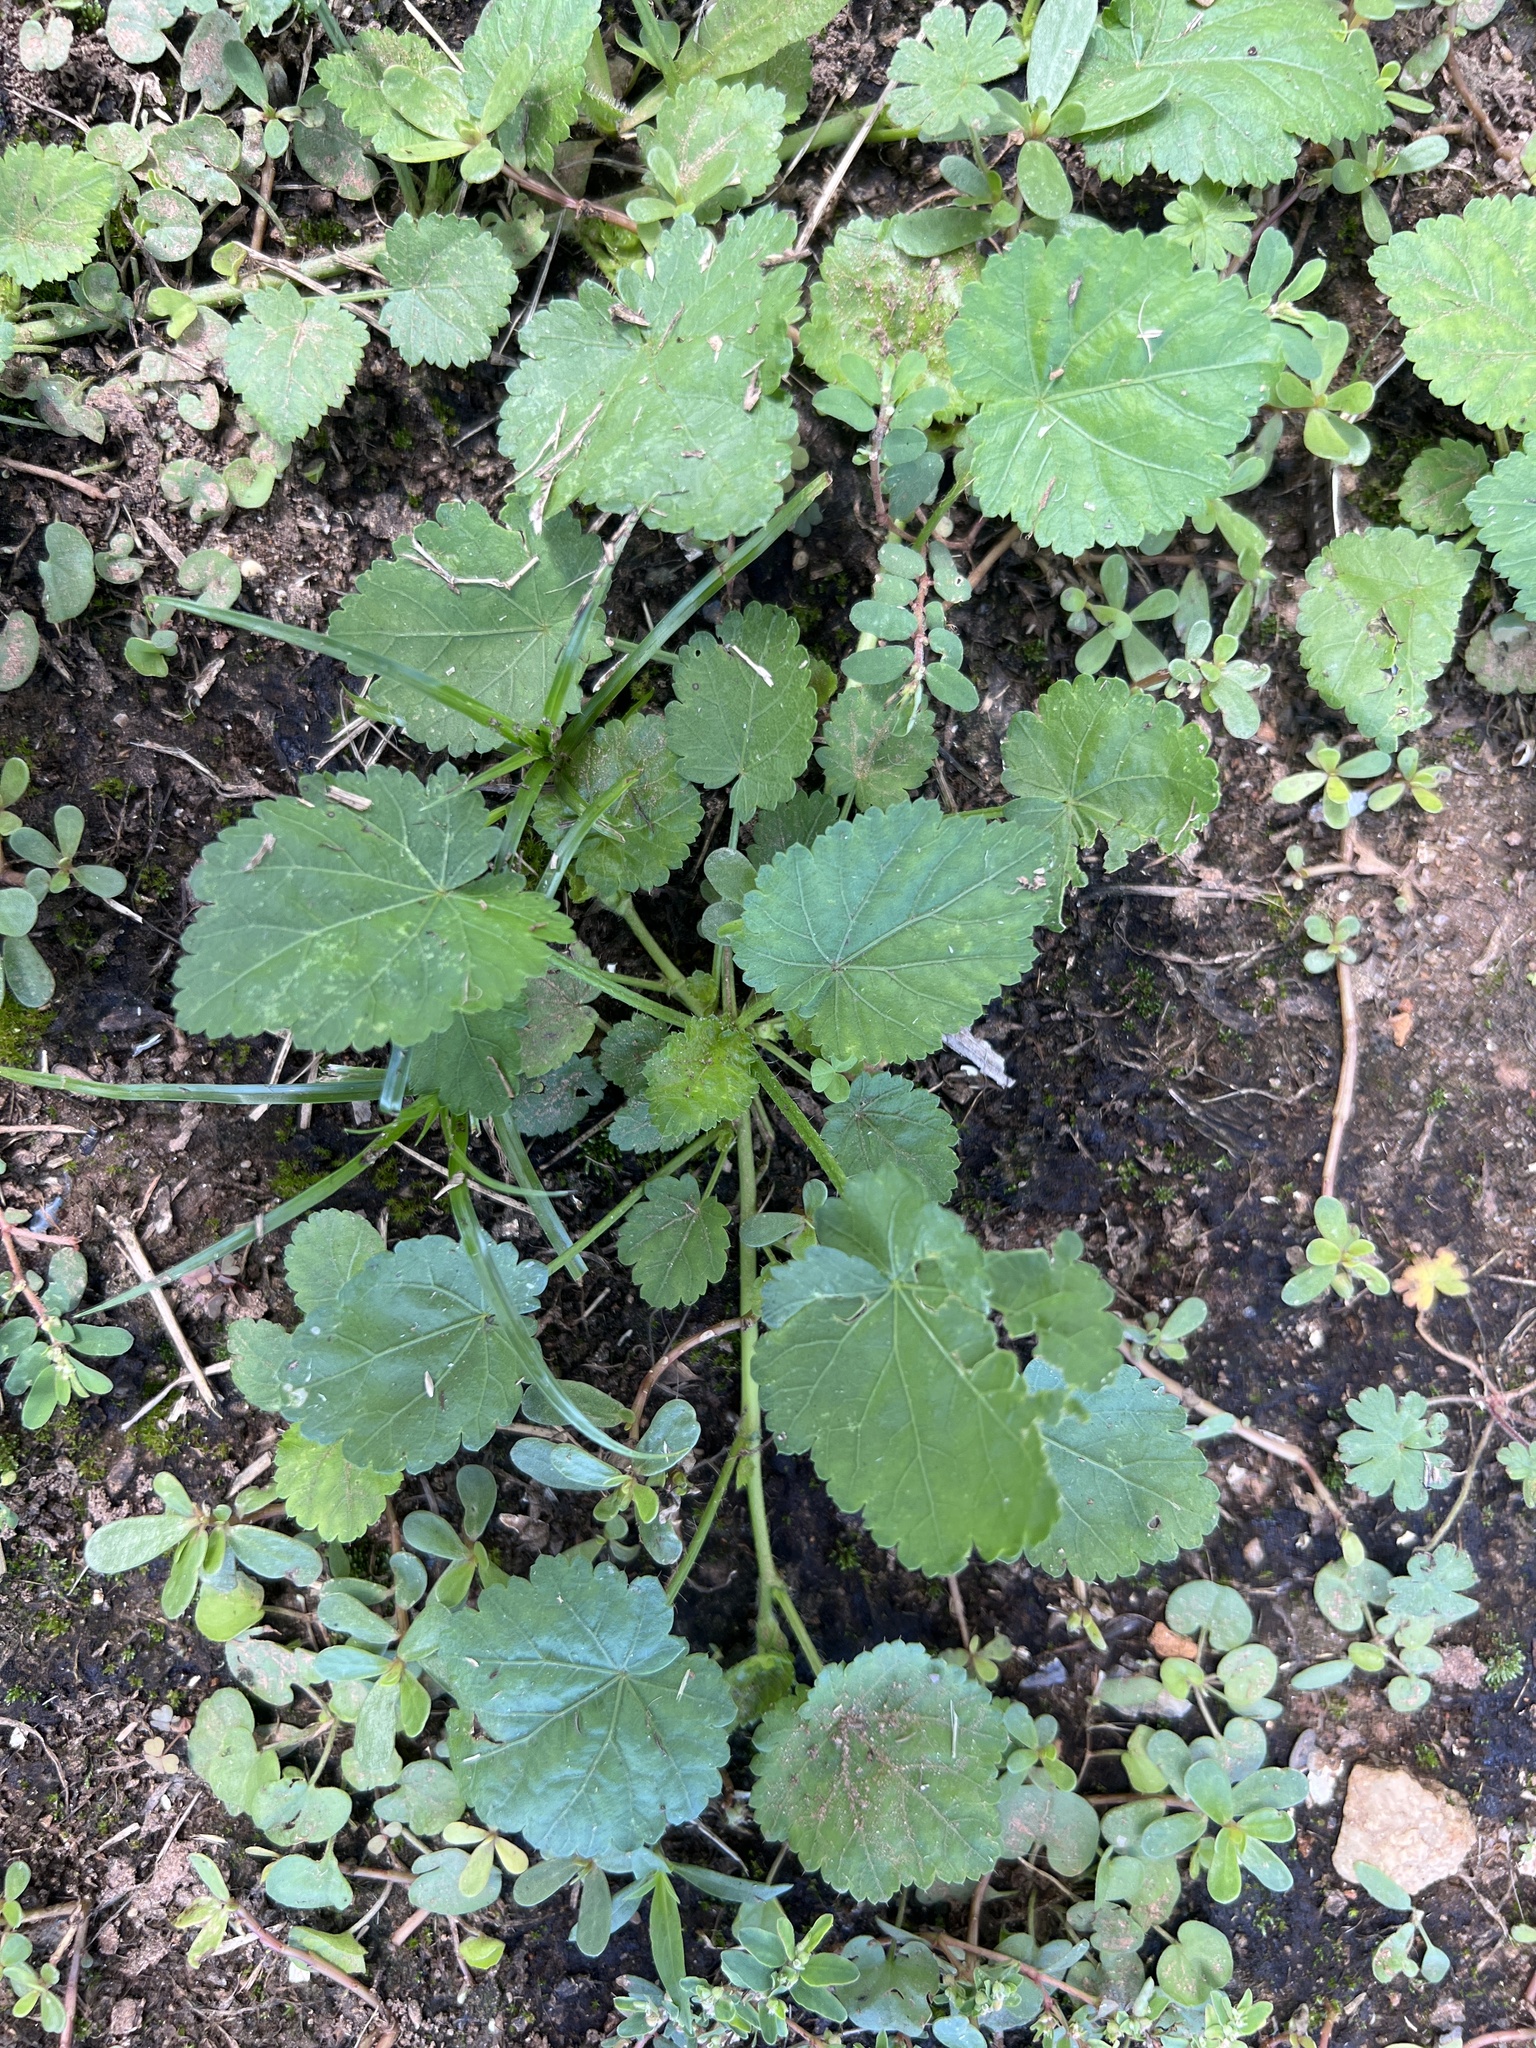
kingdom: Plantae
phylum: Tracheophyta
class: Magnoliopsida
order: Malvales
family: Malvaceae
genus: Modiola
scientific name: Modiola caroliniana
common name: Carolina bristlemallow
